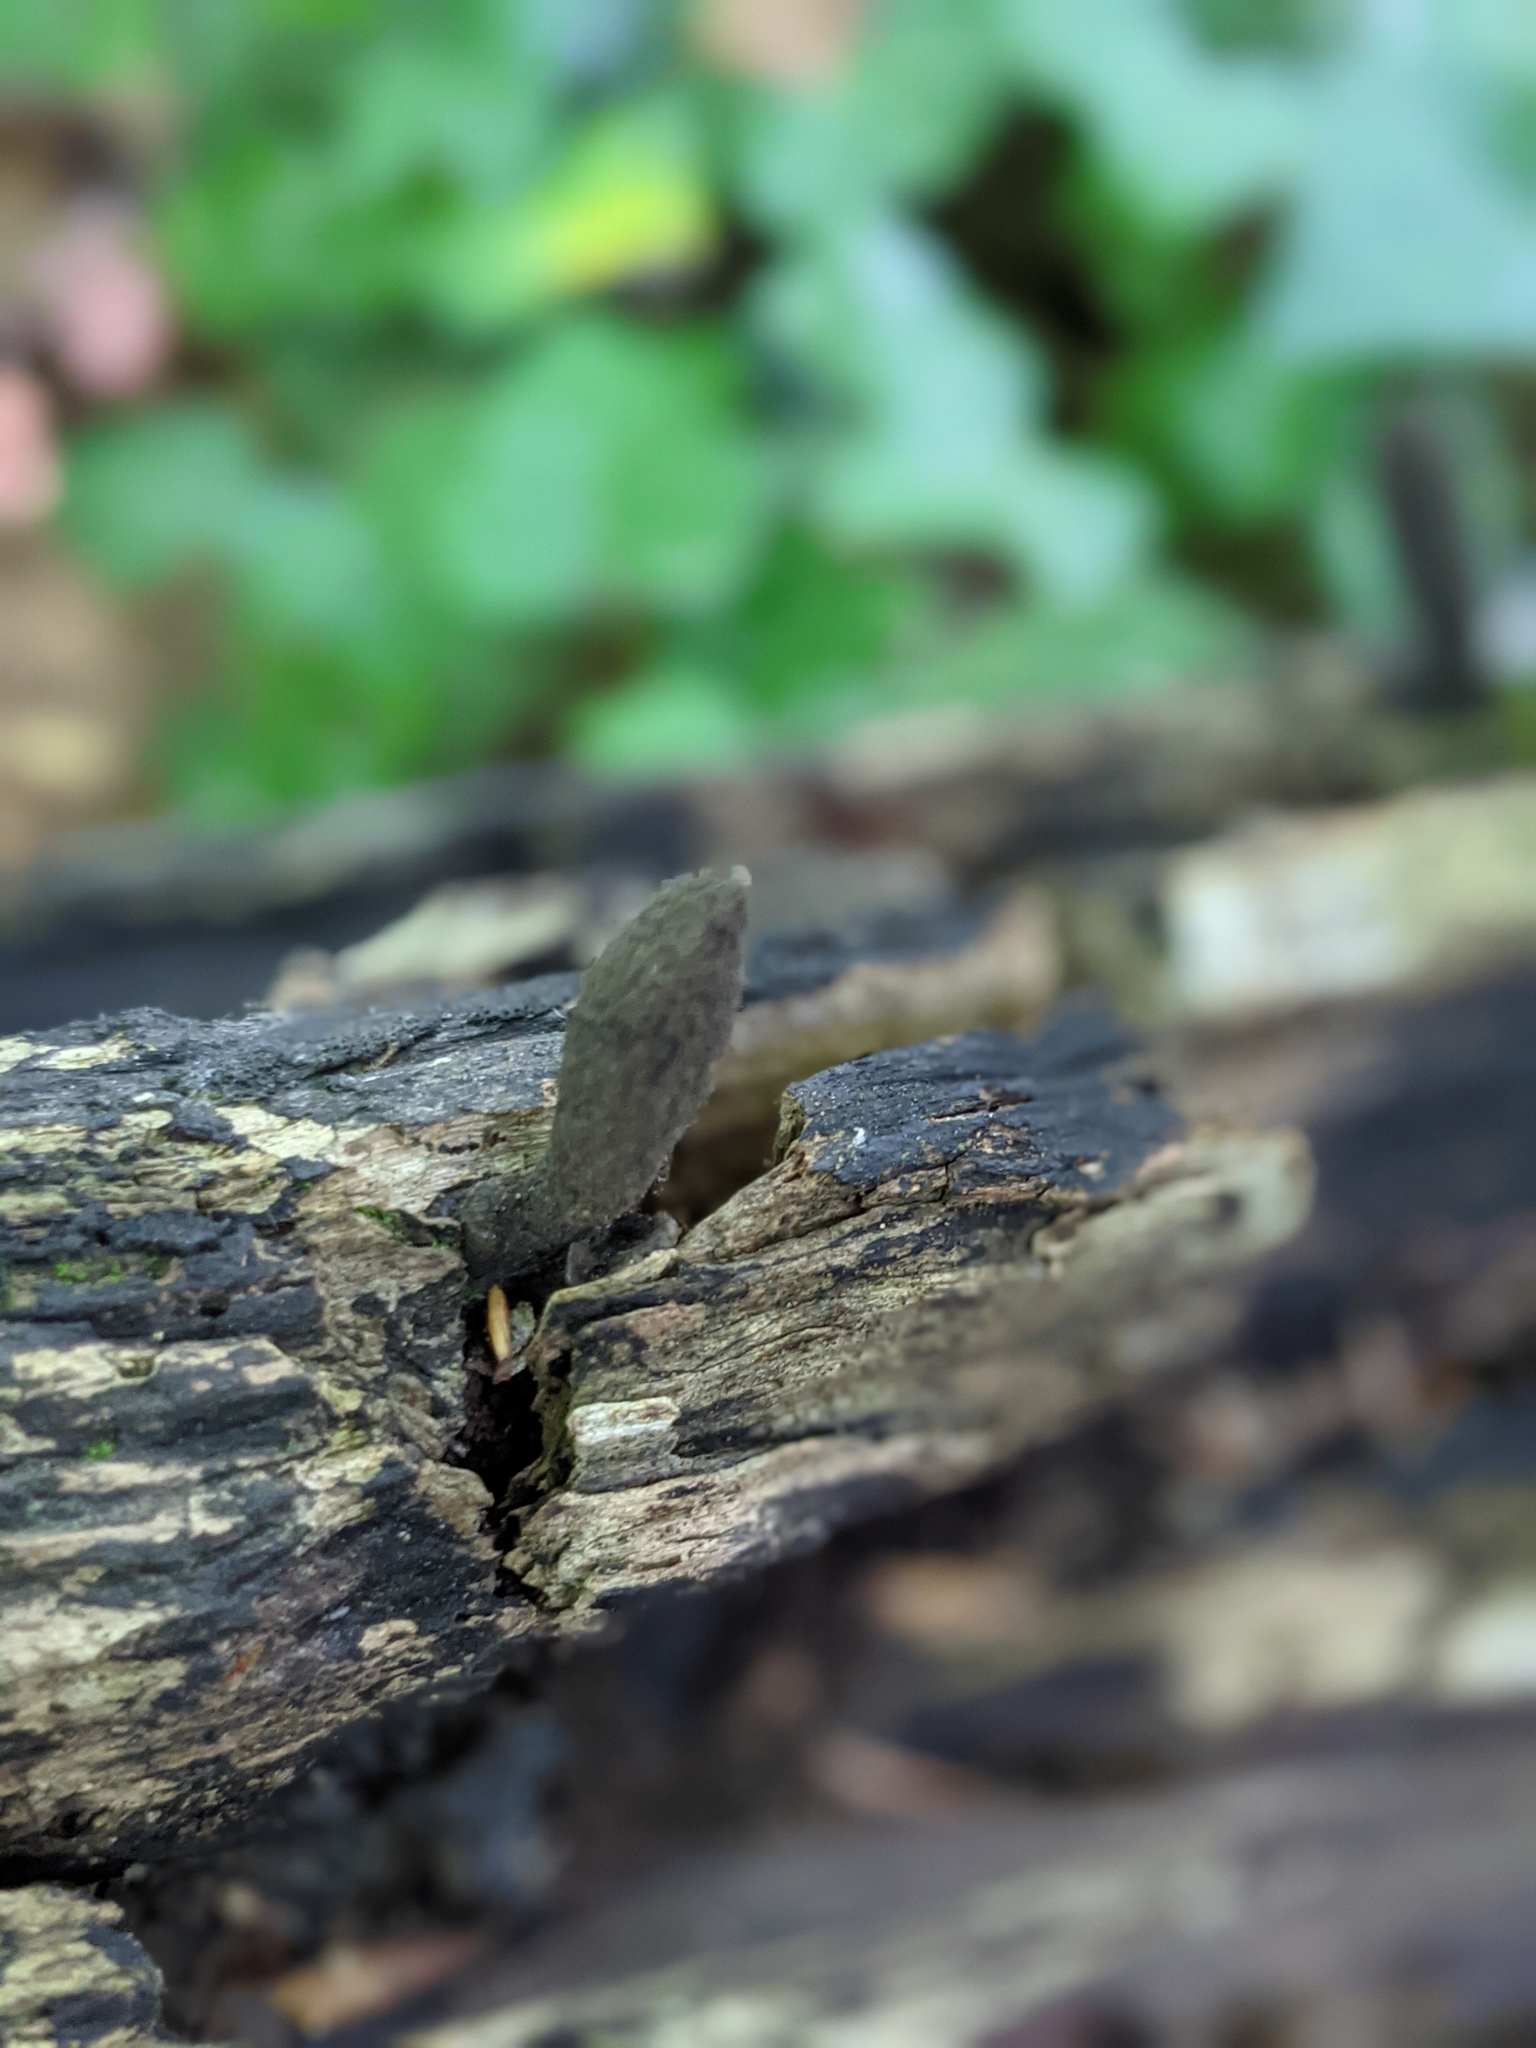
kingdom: Fungi
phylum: Ascomycota
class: Sordariomycetes
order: Xylariales
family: Xylariaceae
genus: Xylaria
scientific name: Xylaria polymorpha
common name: Dead man's fingers
